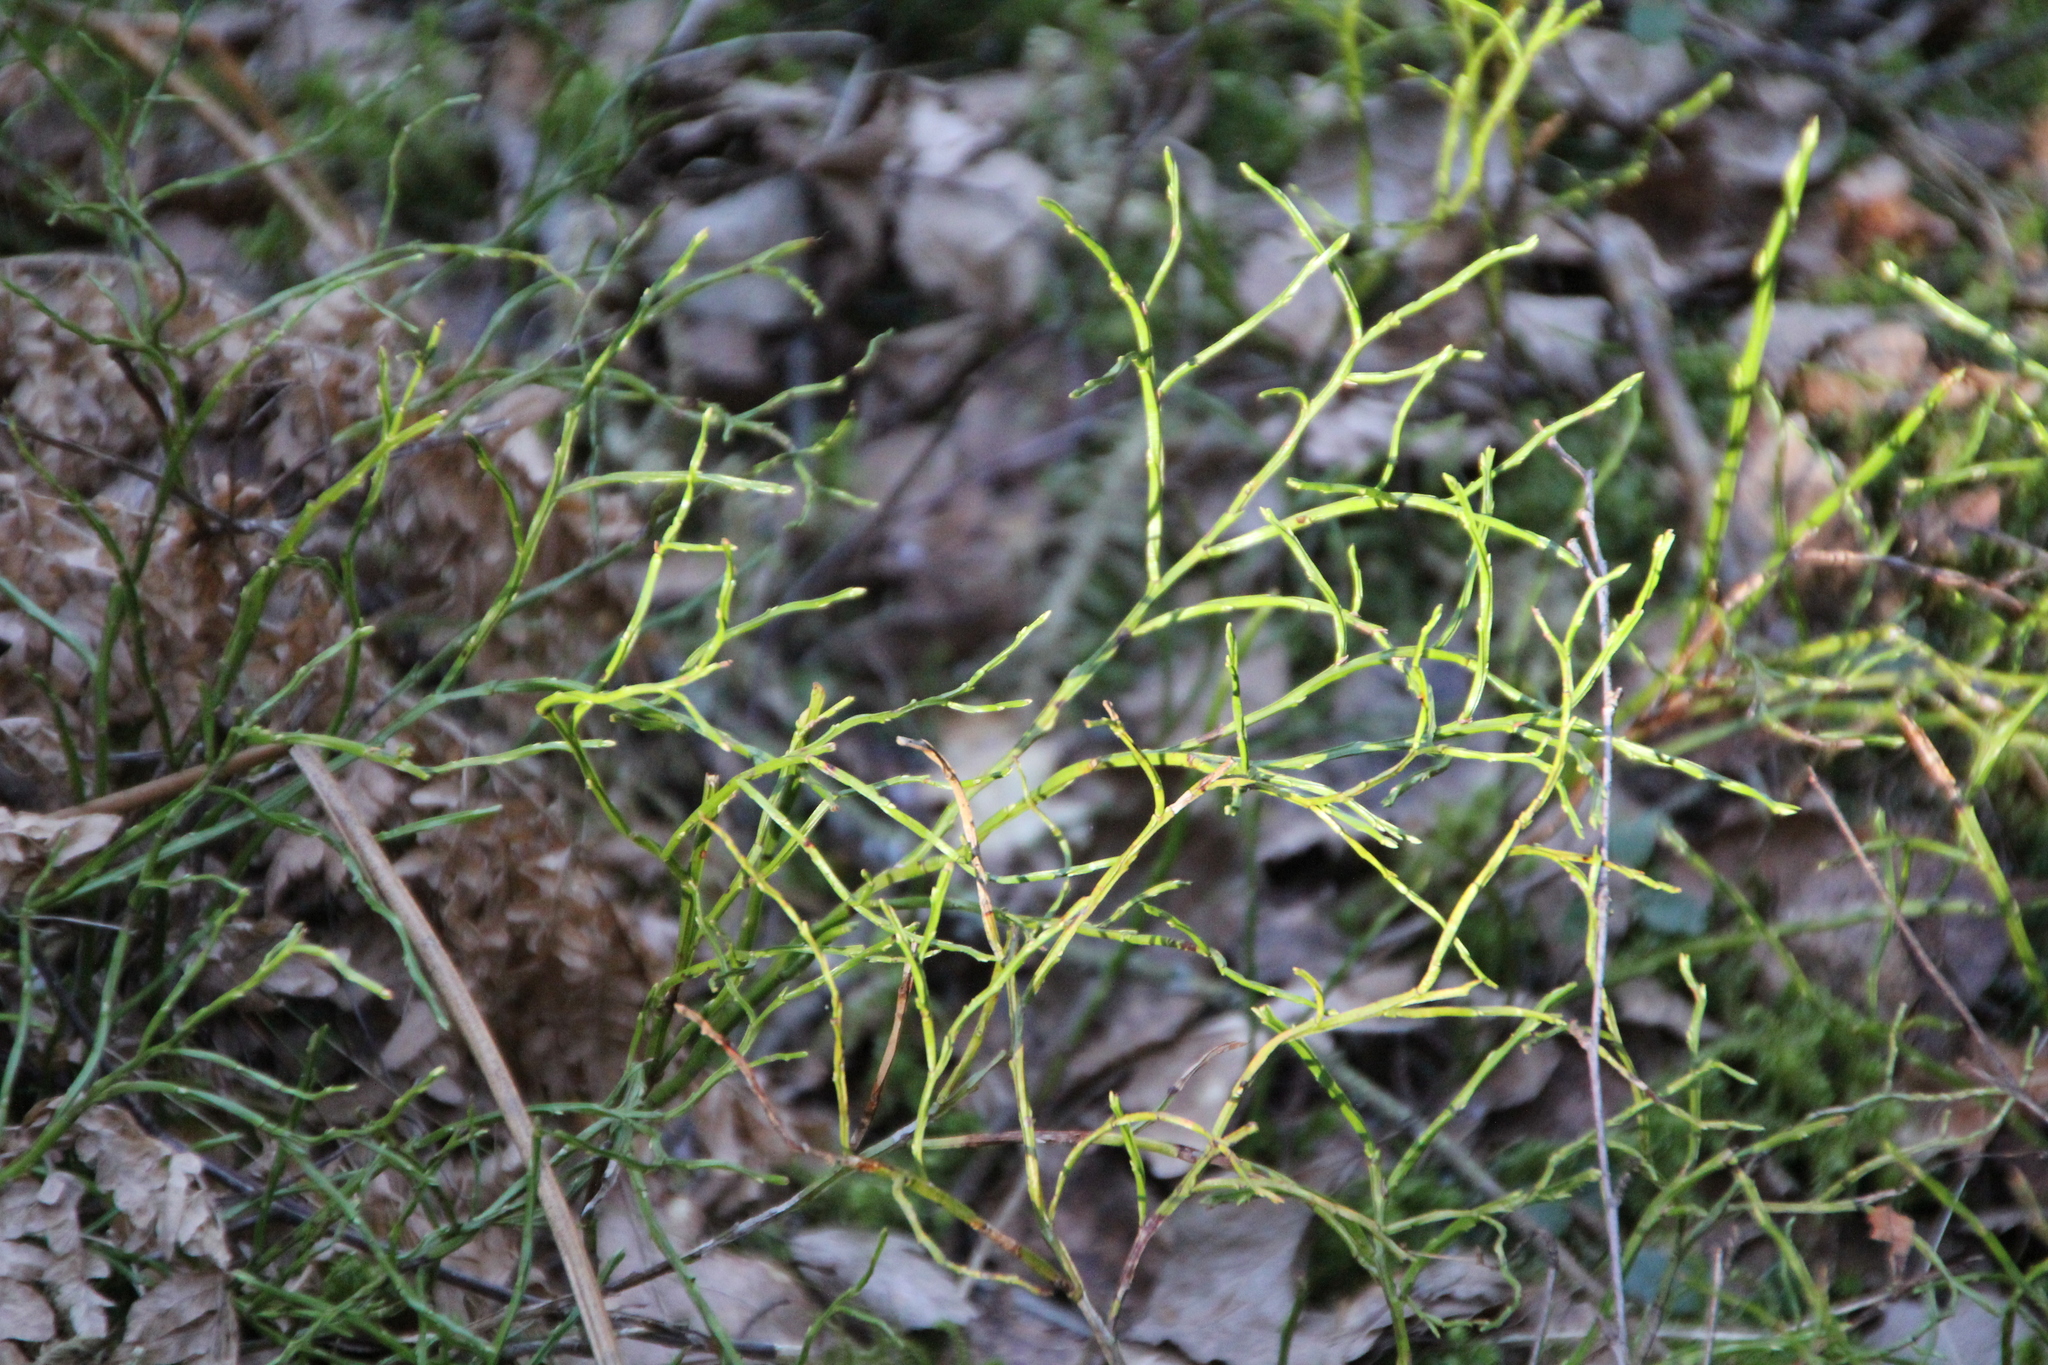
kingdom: Plantae
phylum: Tracheophyta
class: Magnoliopsida
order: Ericales
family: Ericaceae
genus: Vaccinium
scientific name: Vaccinium myrtillus
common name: Bilberry
